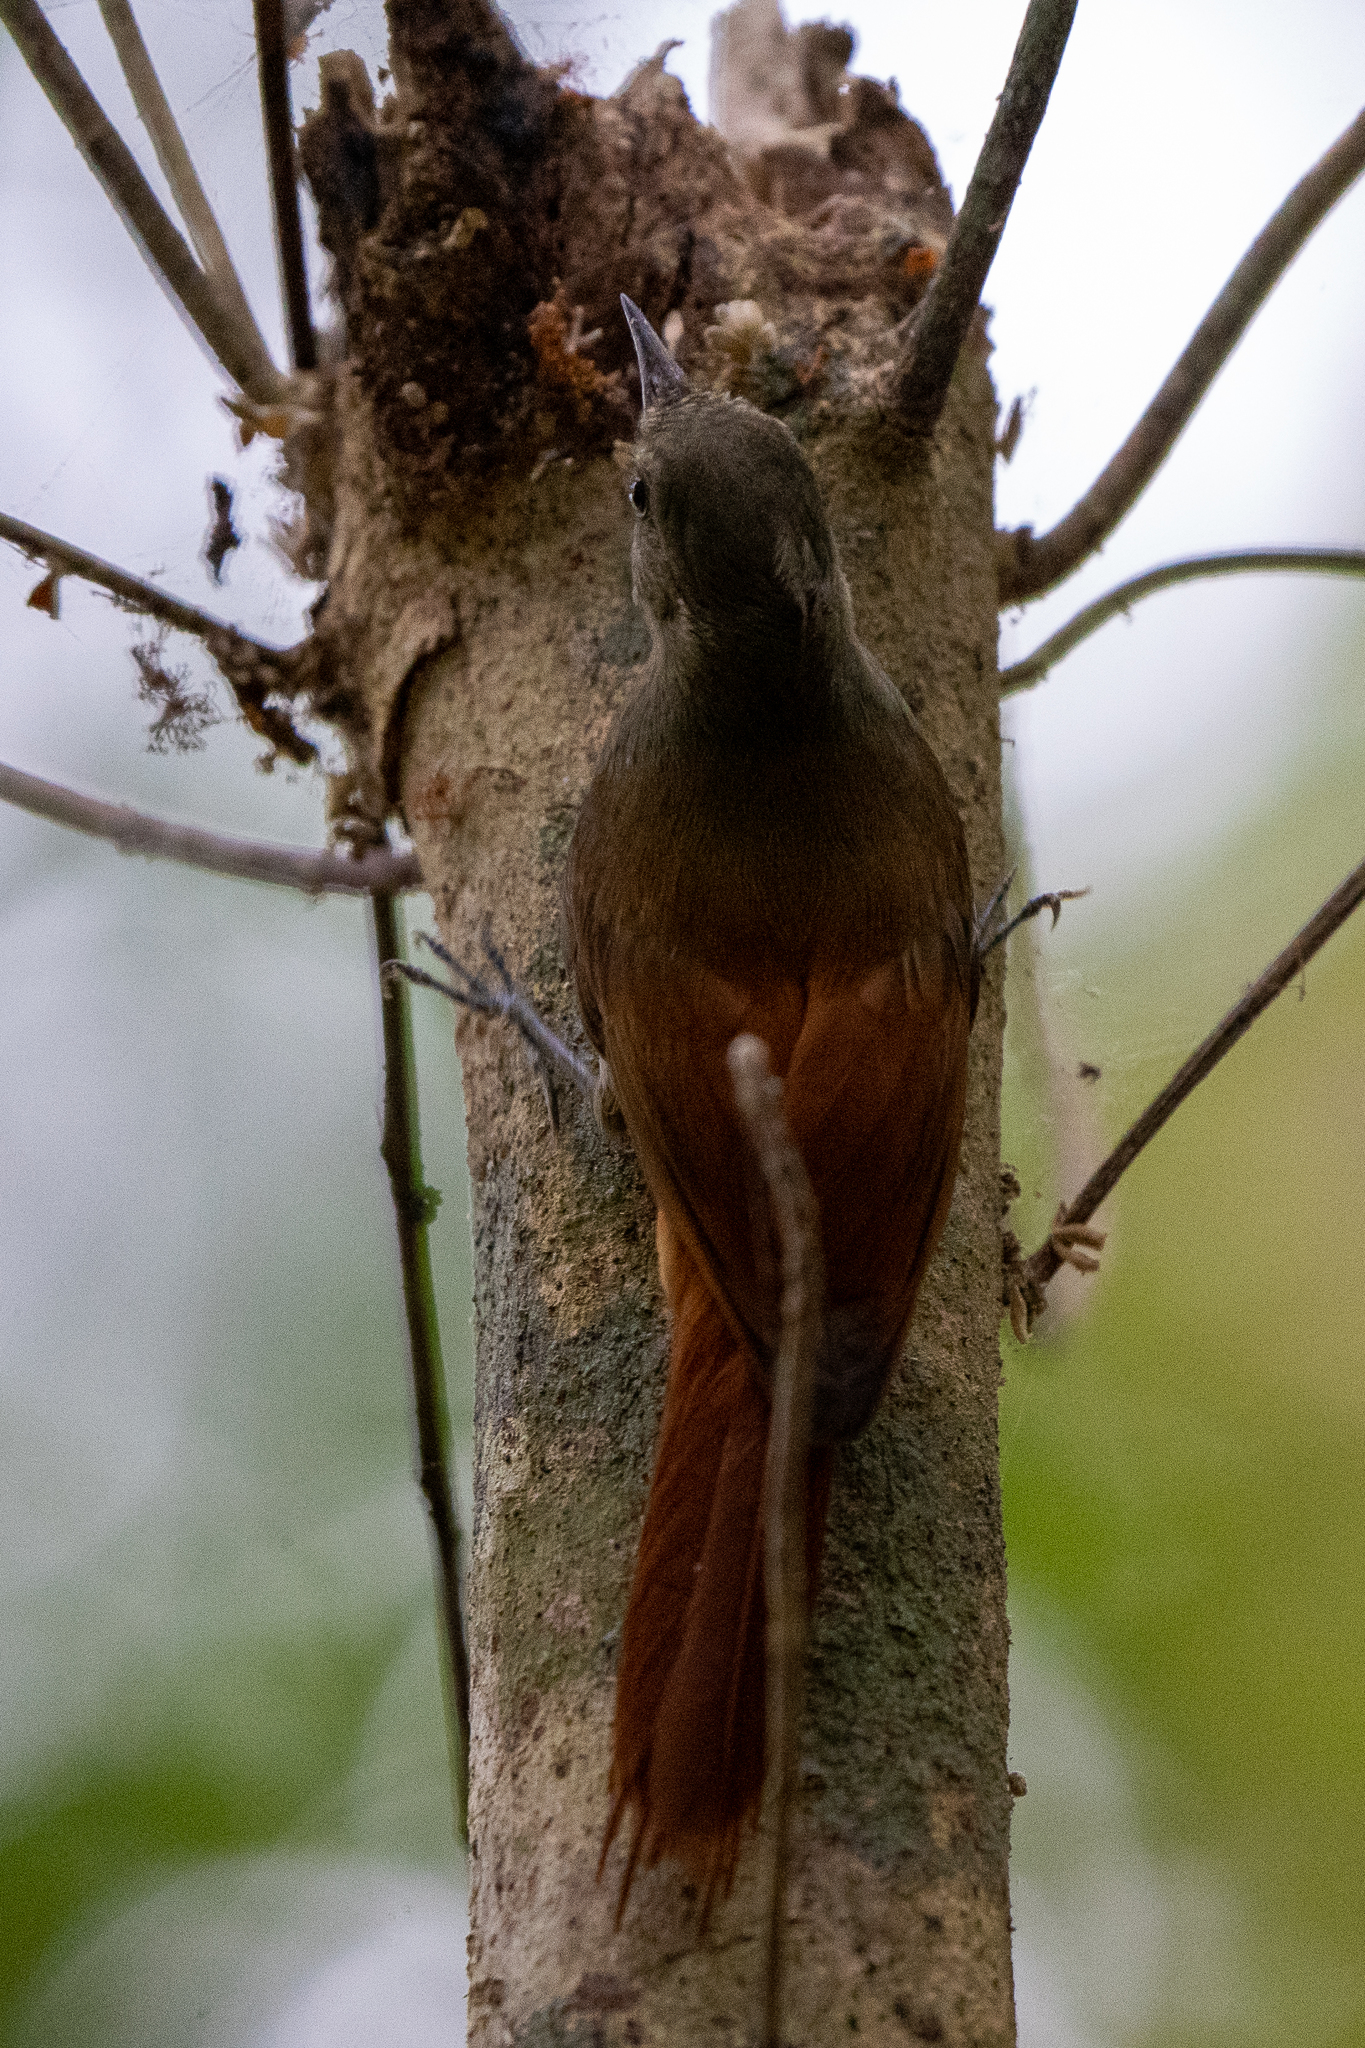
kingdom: Animalia
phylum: Chordata
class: Aves
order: Passeriformes
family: Furnariidae
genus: Sittasomus
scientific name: Sittasomus griseicapillus
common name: Olivaceous woodcreeper
